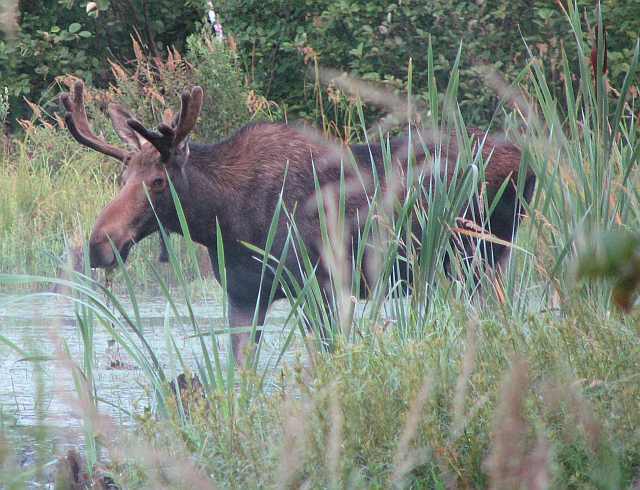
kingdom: Animalia
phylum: Chordata
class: Mammalia
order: Artiodactyla
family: Cervidae
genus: Alces
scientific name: Alces alces
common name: Moose
